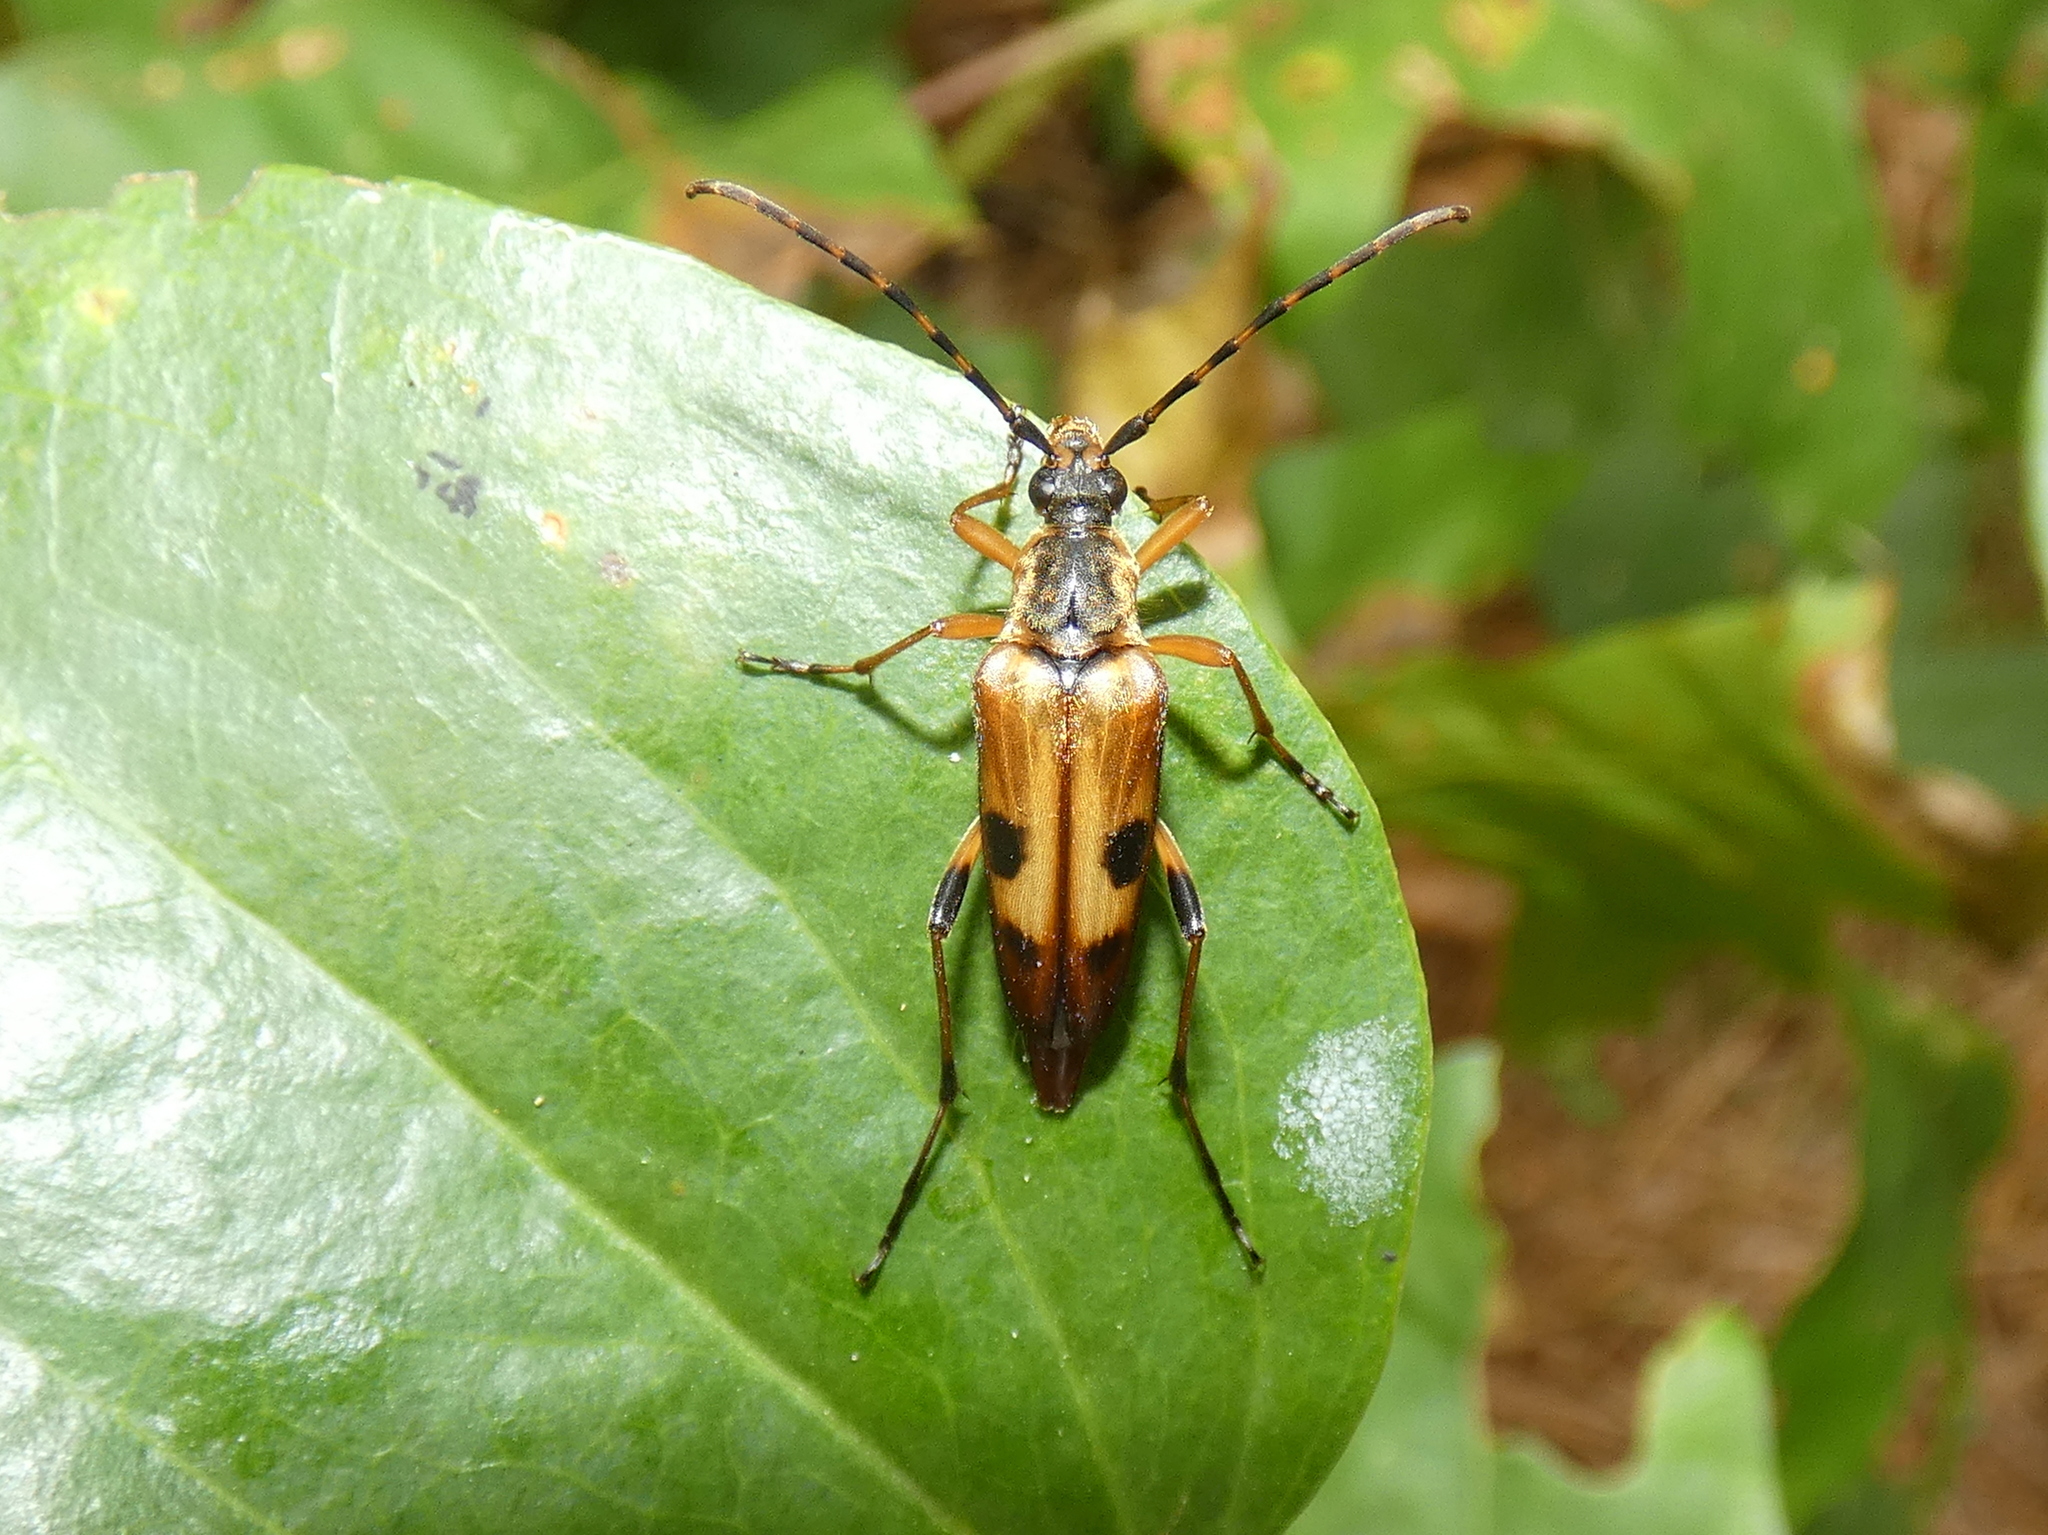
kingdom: Animalia
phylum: Arthropoda
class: Insecta
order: Coleoptera
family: Cerambycidae
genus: Etorofus
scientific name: Etorofus
